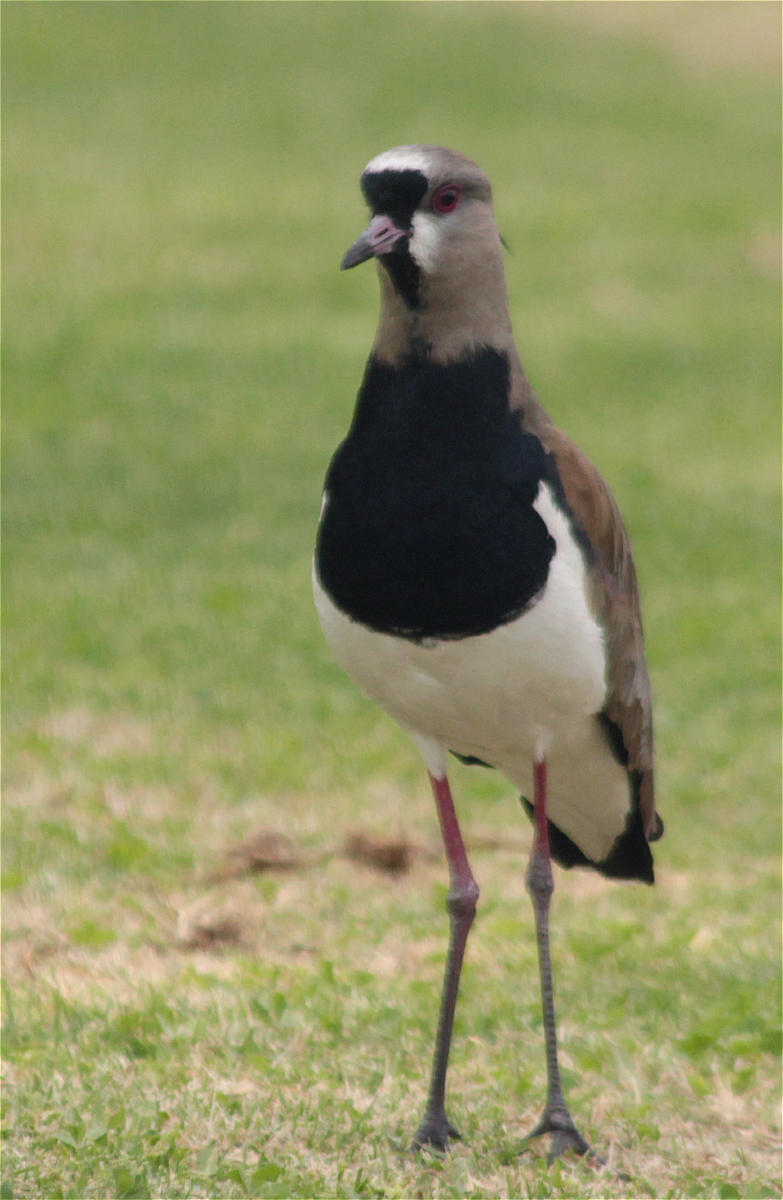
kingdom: Animalia
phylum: Chordata
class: Aves
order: Charadriiformes
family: Charadriidae
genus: Vanellus
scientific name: Vanellus chilensis
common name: Southern lapwing
